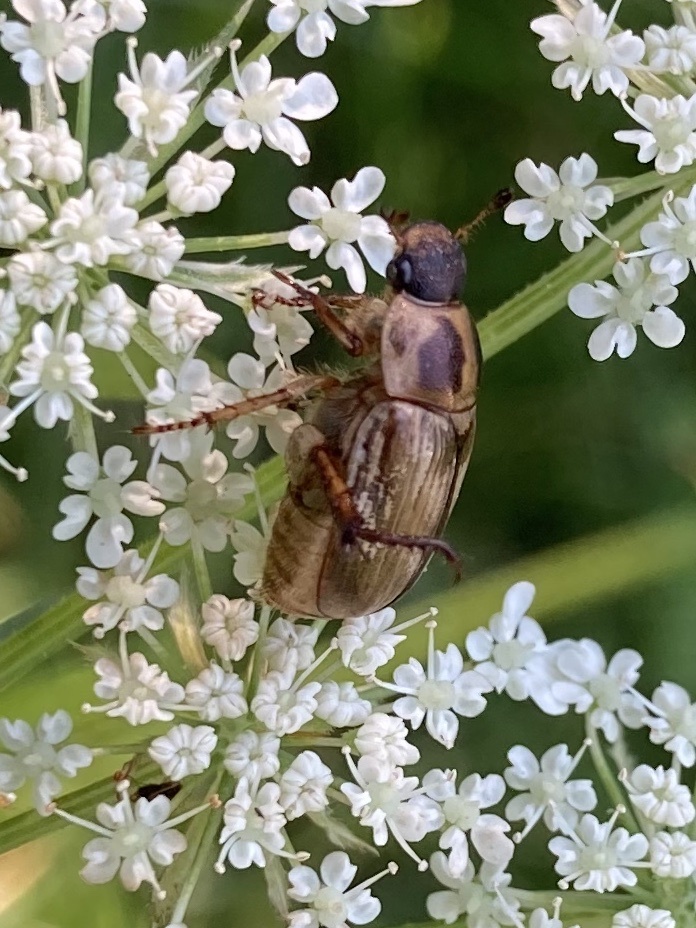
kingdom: Animalia
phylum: Arthropoda
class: Insecta
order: Coleoptera
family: Scarabaeidae
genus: Exomala
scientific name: Exomala orientalis
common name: Oriental beetle
